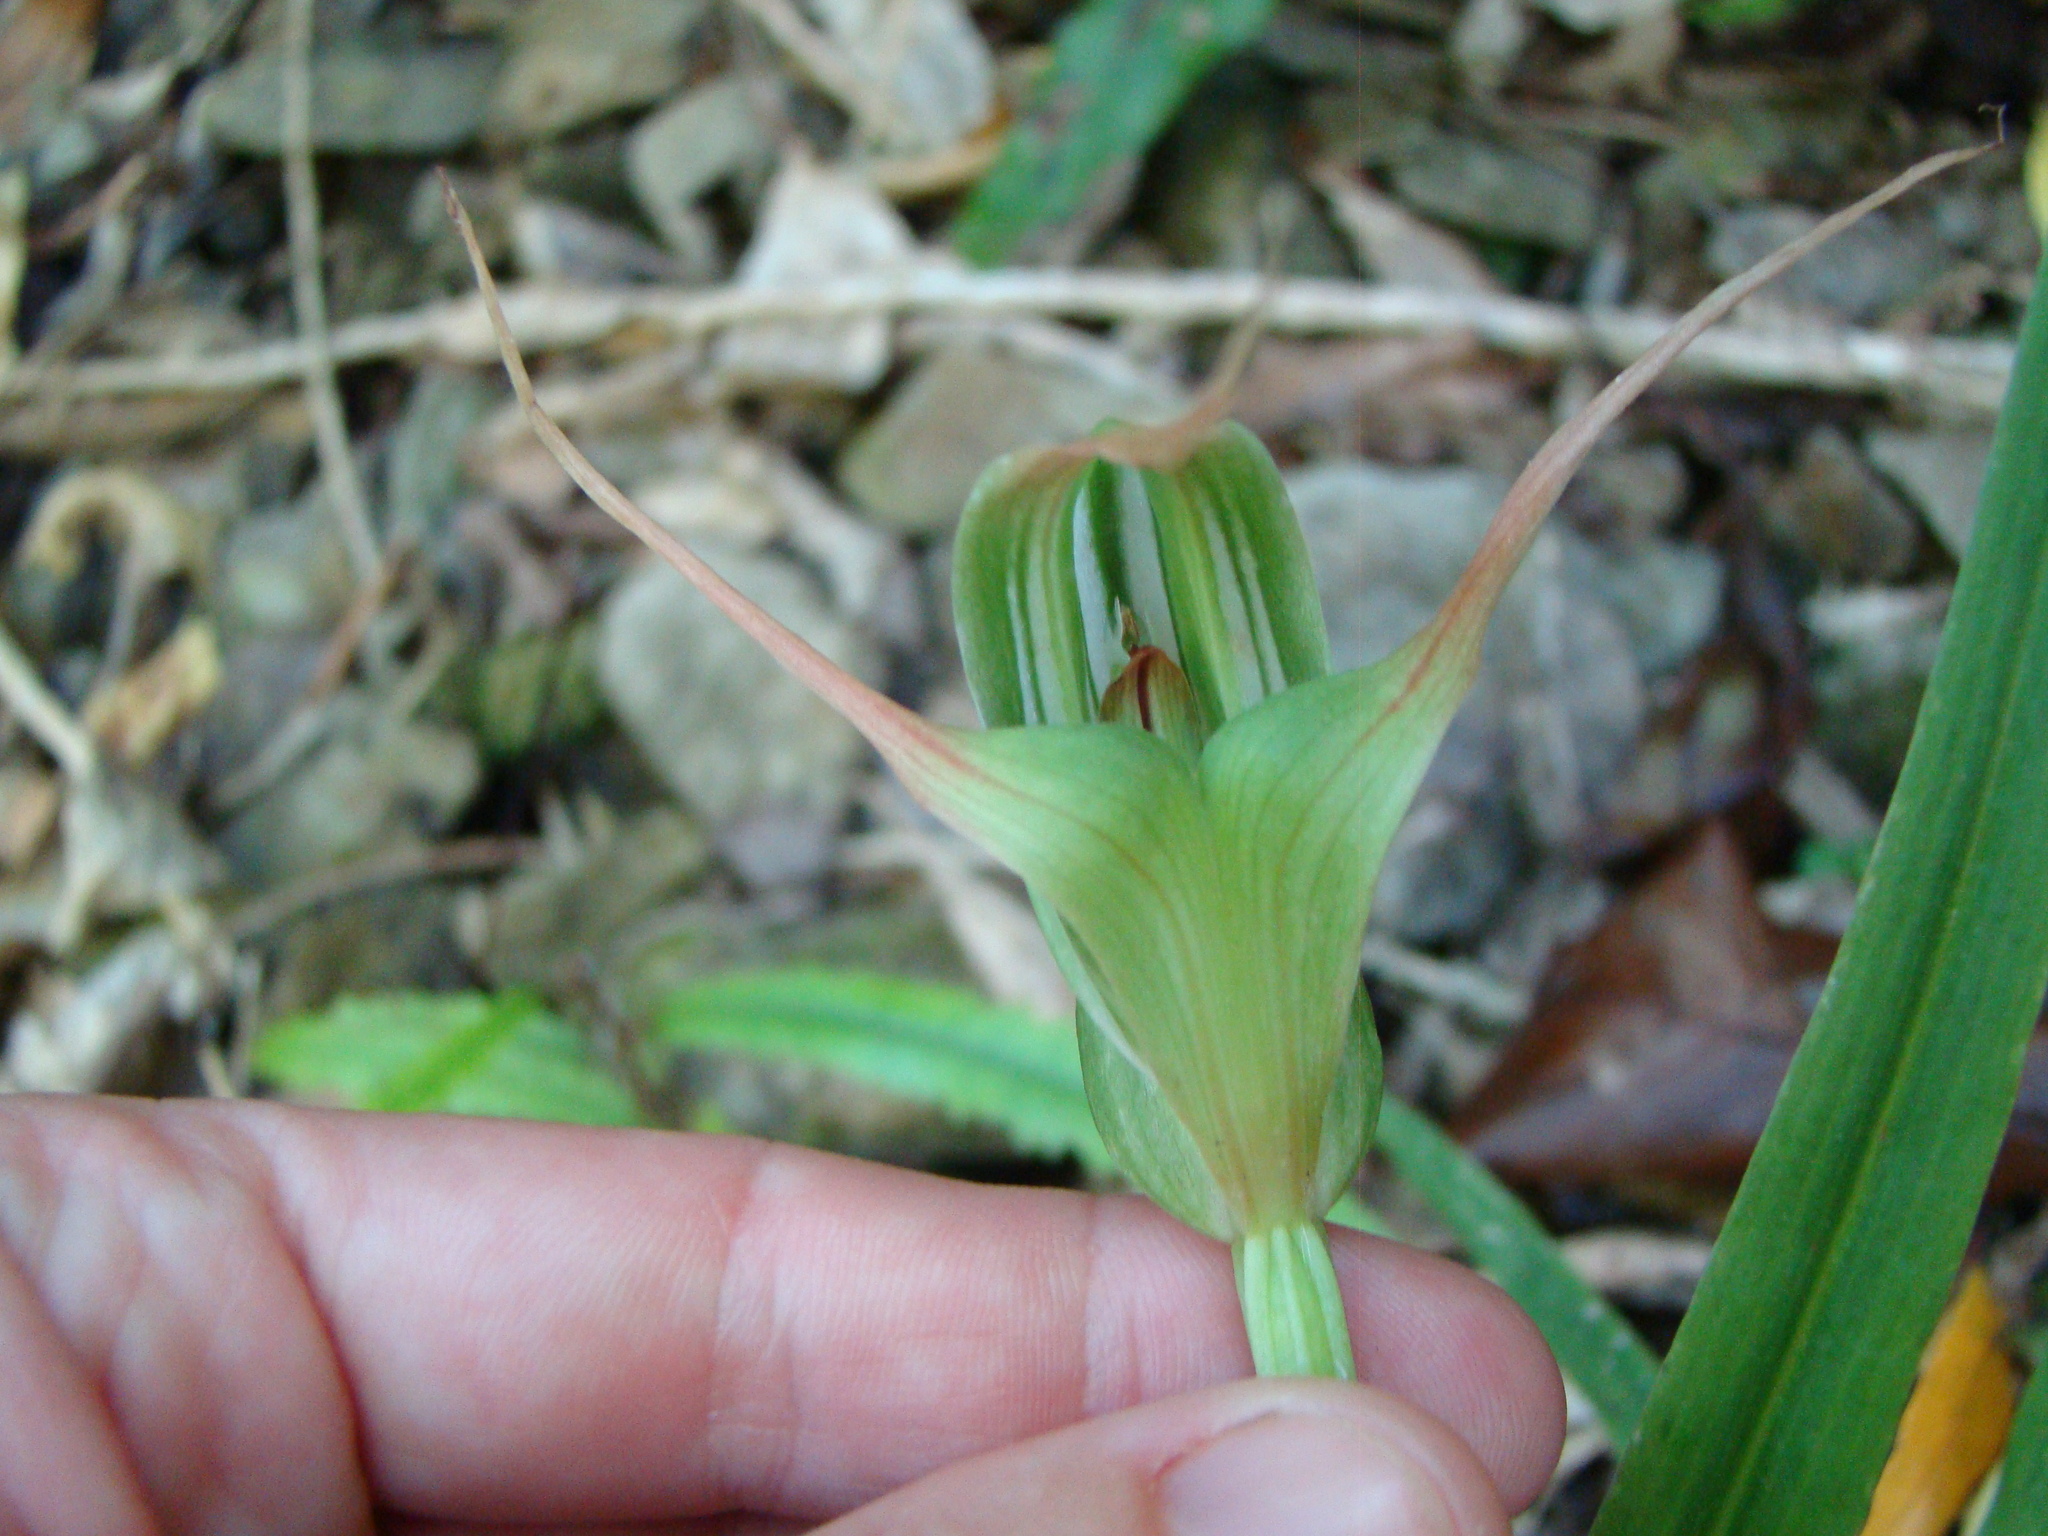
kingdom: Plantae
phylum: Tracheophyta
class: Liliopsida
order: Asparagales
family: Orchidaceae
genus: Pterostylis
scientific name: Pterostylis banksii
